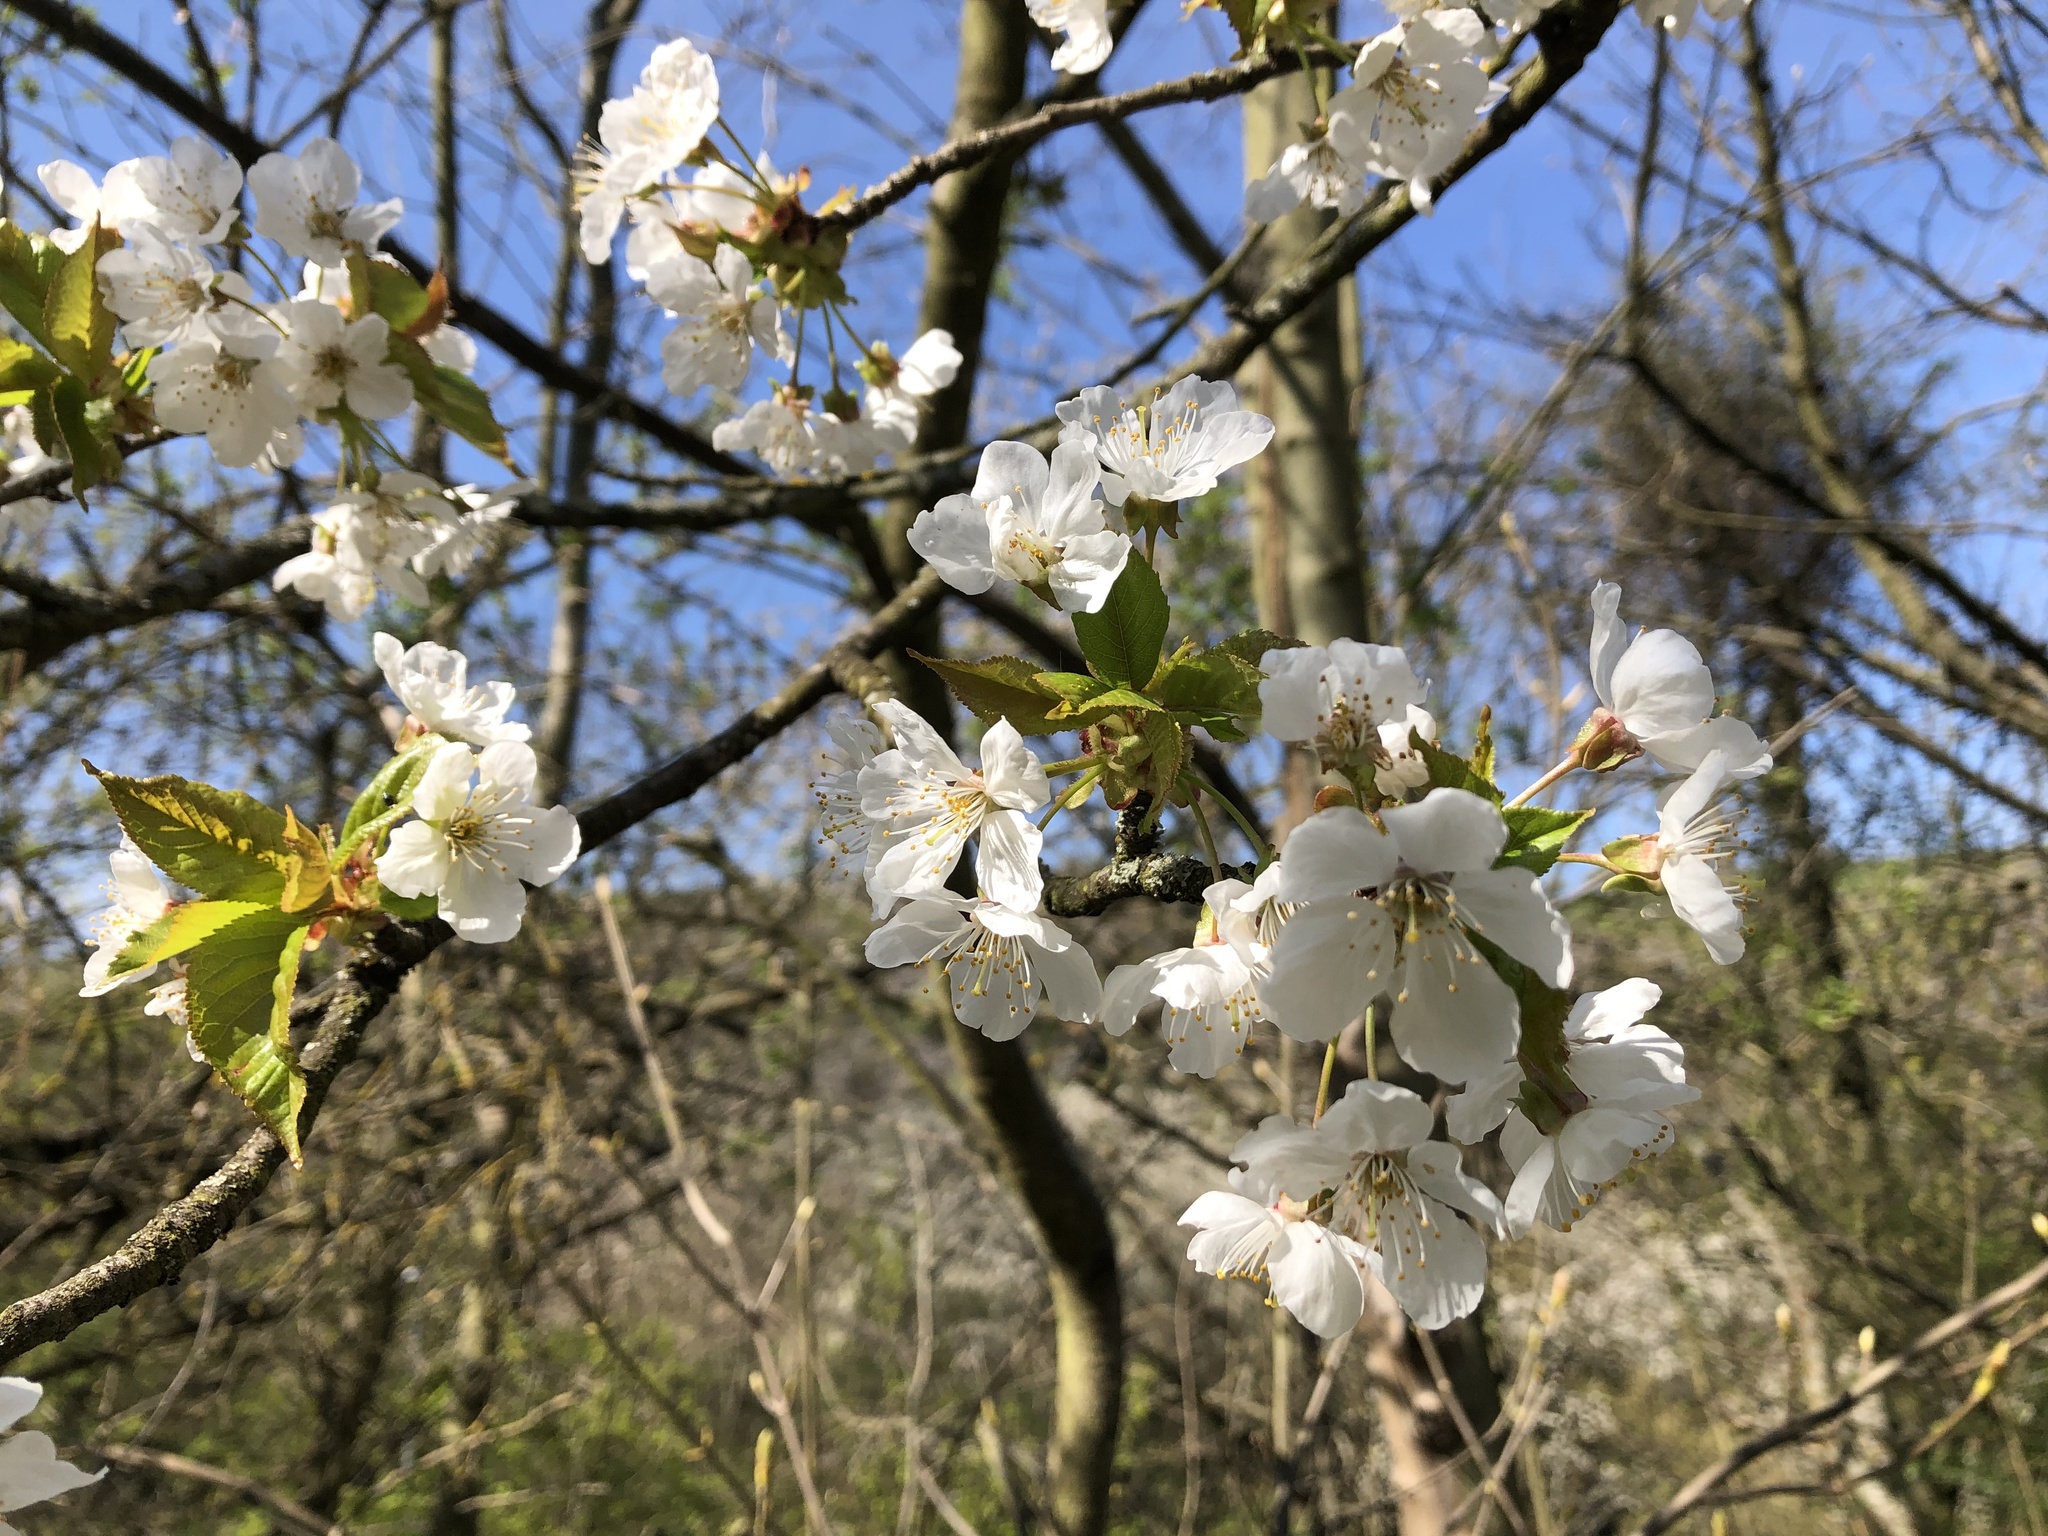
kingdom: Plantae
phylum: Tracheophyta
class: Magnoliopsida
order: Rosales
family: Rosaceae
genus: Prunus
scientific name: Prunus avium
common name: Sweet cherry
